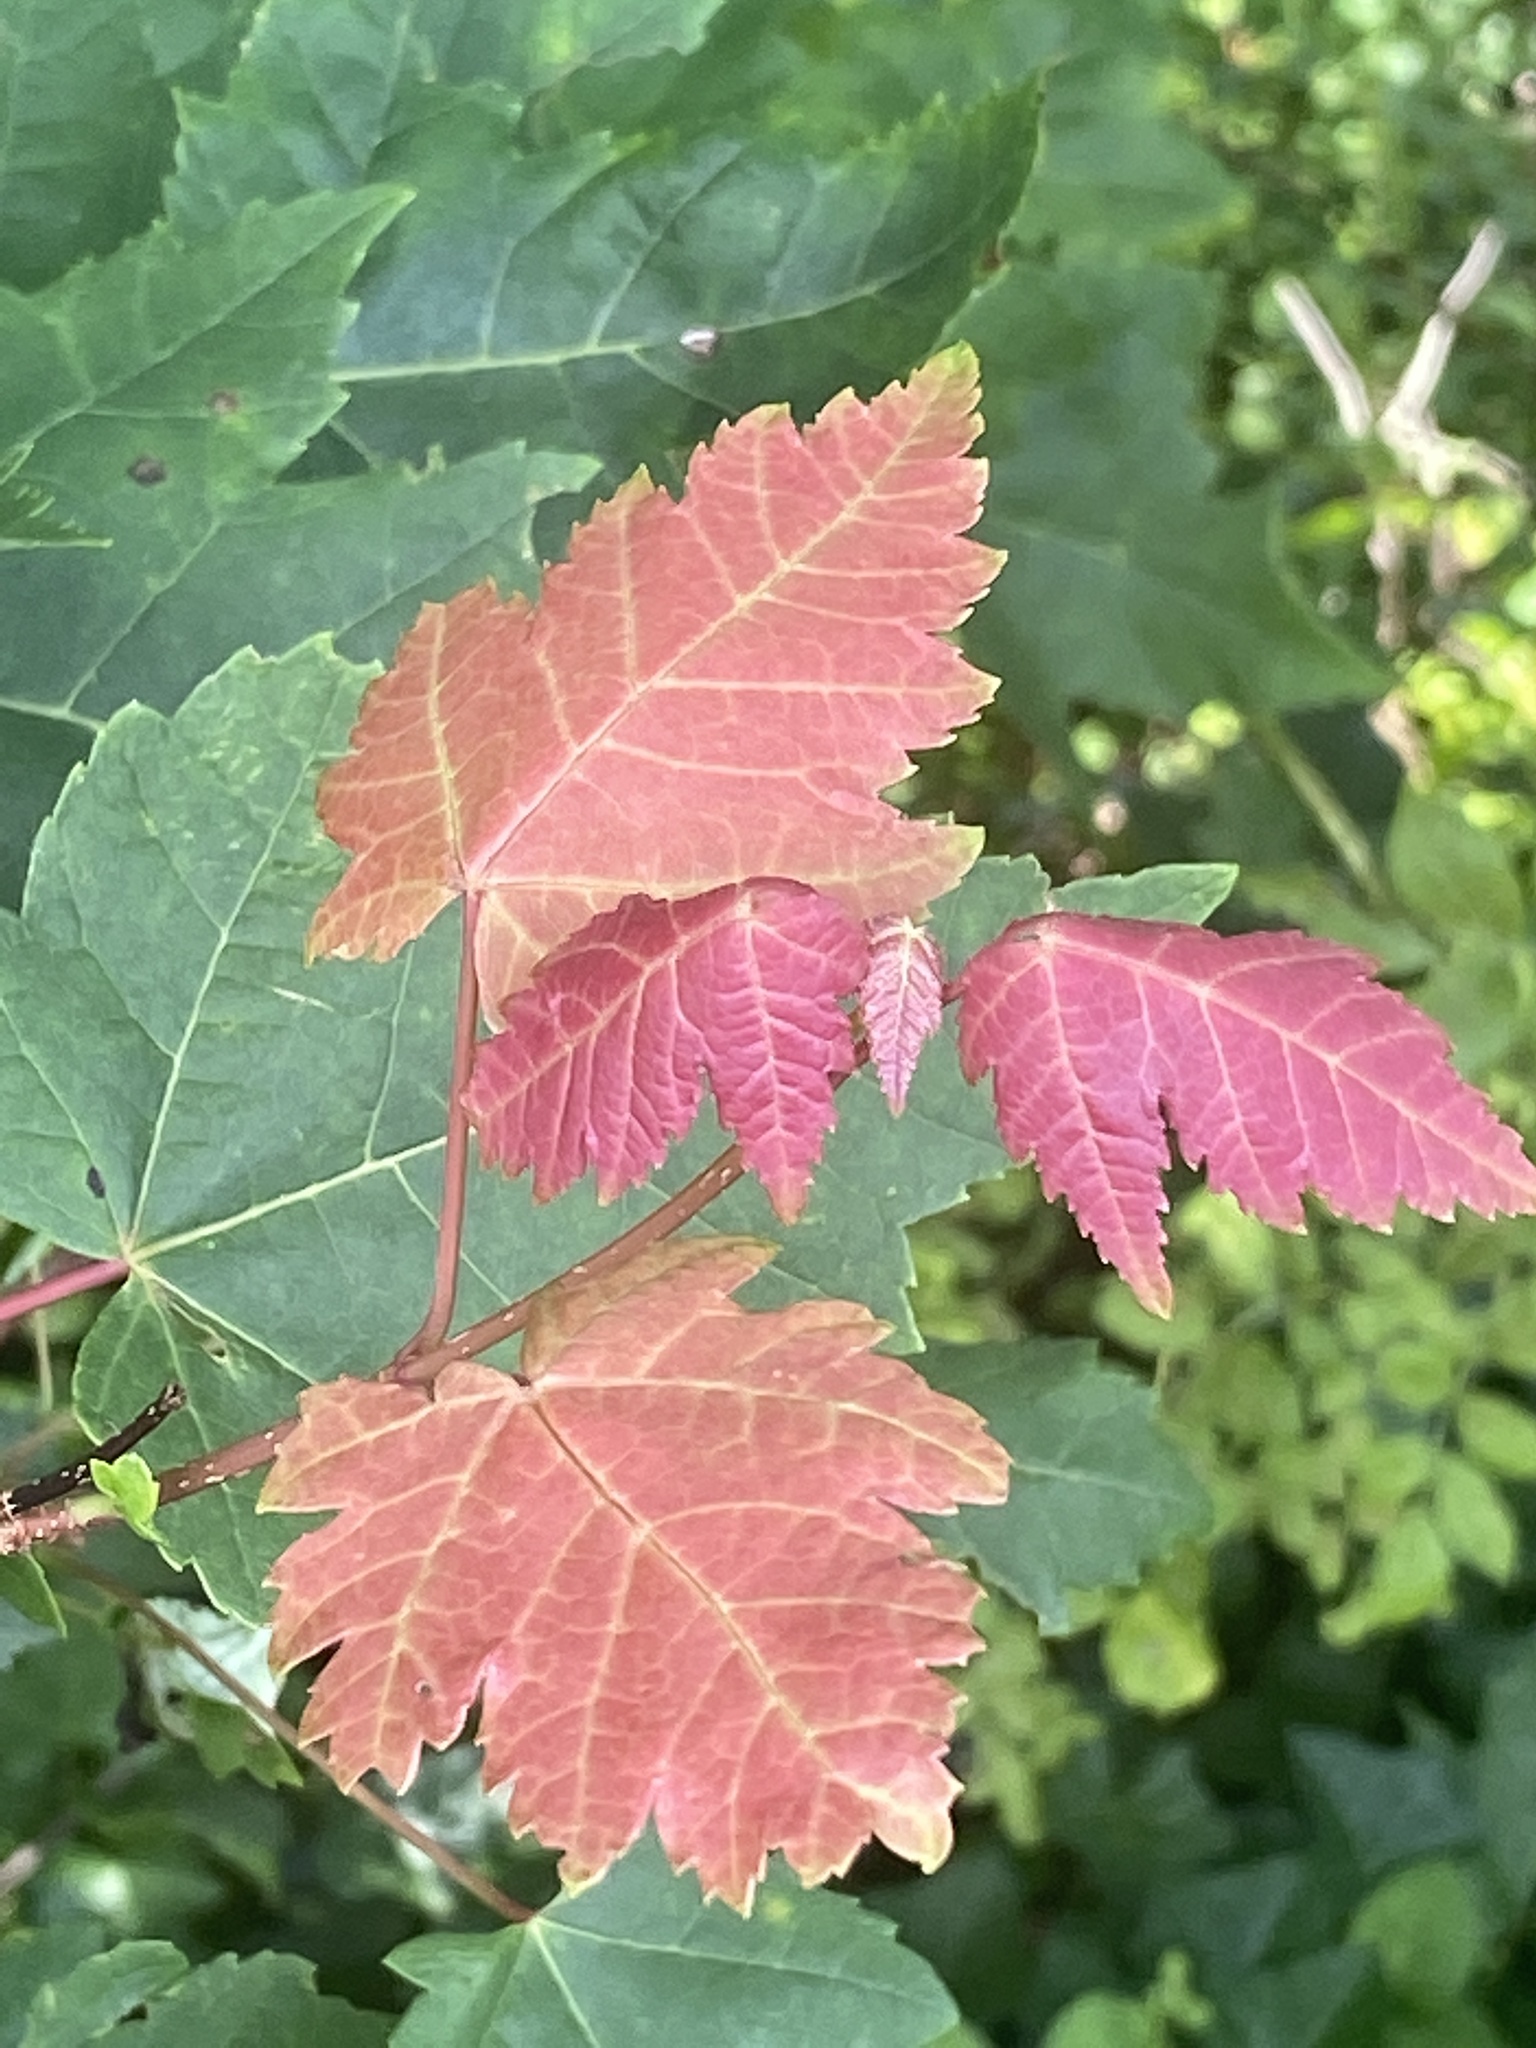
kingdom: Plantae
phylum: Tracheophyta
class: Magnoliopsida
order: Sapindales
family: Sapindaceae
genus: Acer
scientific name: Acer rubrum
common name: Red maple
